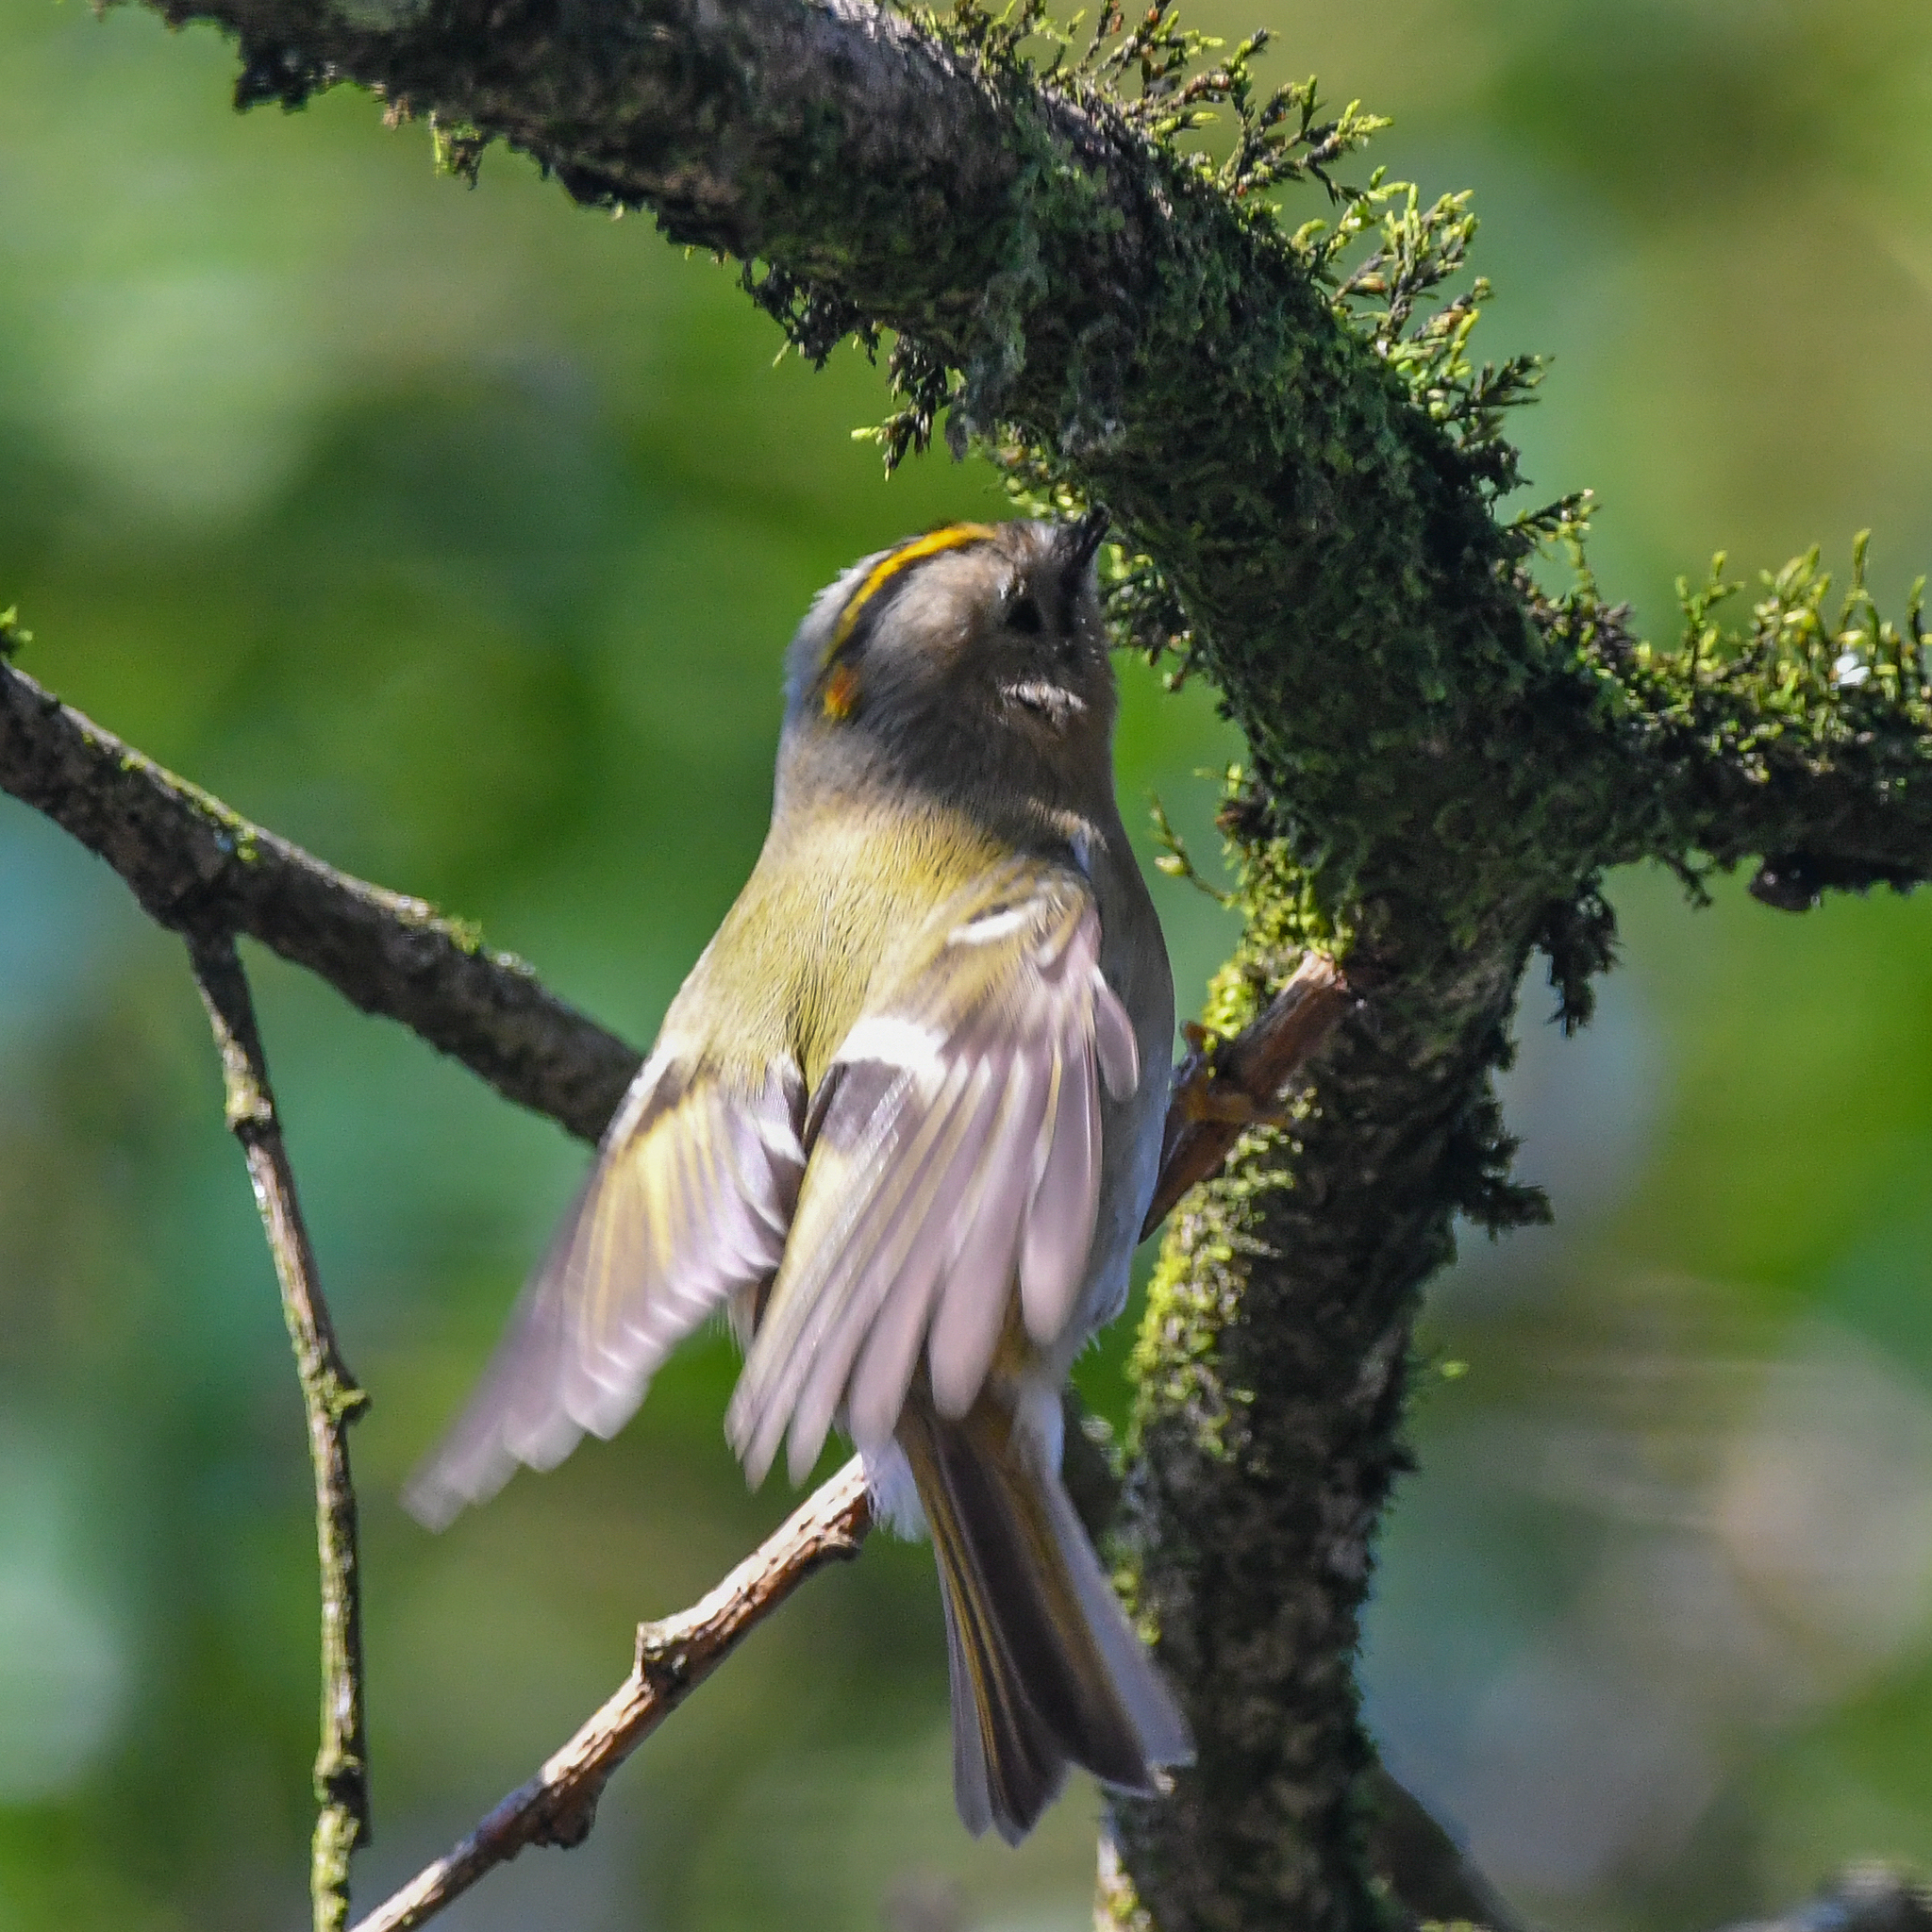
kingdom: Animalia
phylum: Chordata
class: Aves
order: Passeriformes
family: Regulidae
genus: Regulus
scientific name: Regulus regulus
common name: Goldcrest
